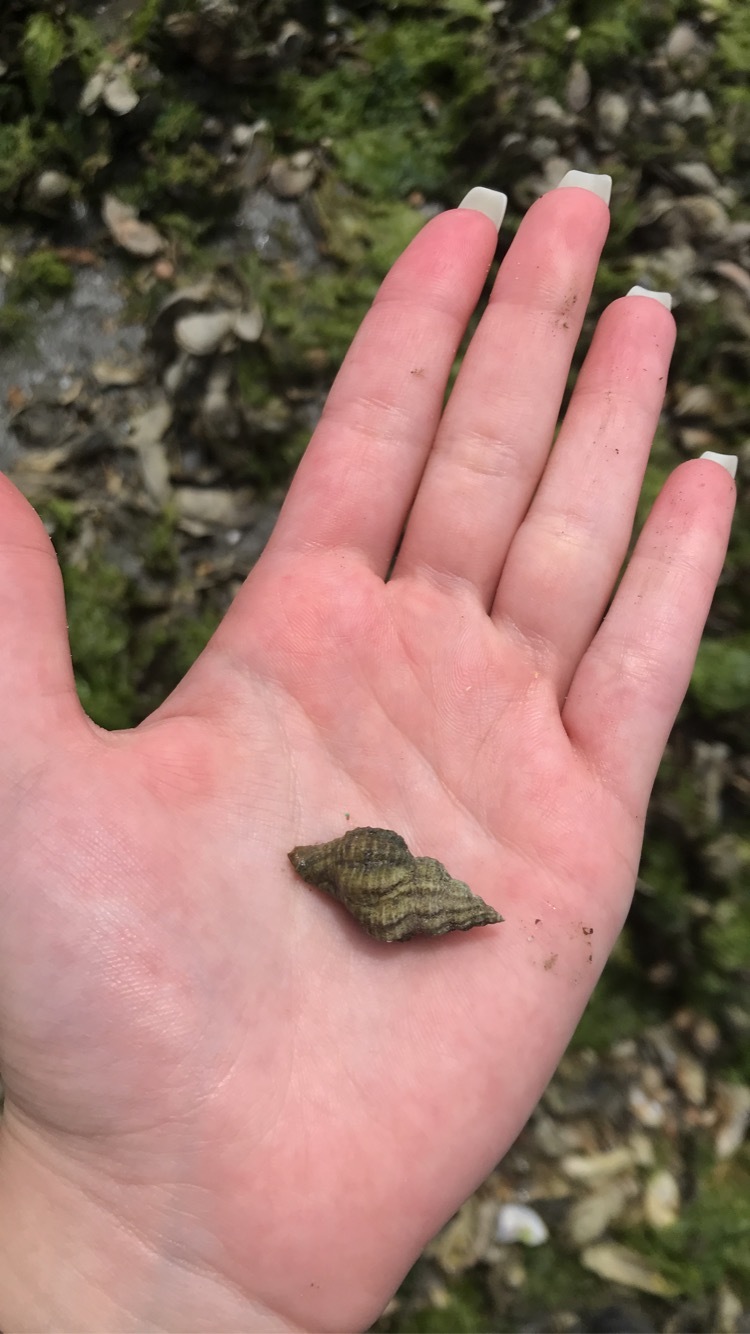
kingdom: Animalia
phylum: Mollusca
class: Gastropoda
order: Neogastropoda
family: Muricidae
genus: Urosalpinx
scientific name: Urosalpinx cinerea
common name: American sting winkle
